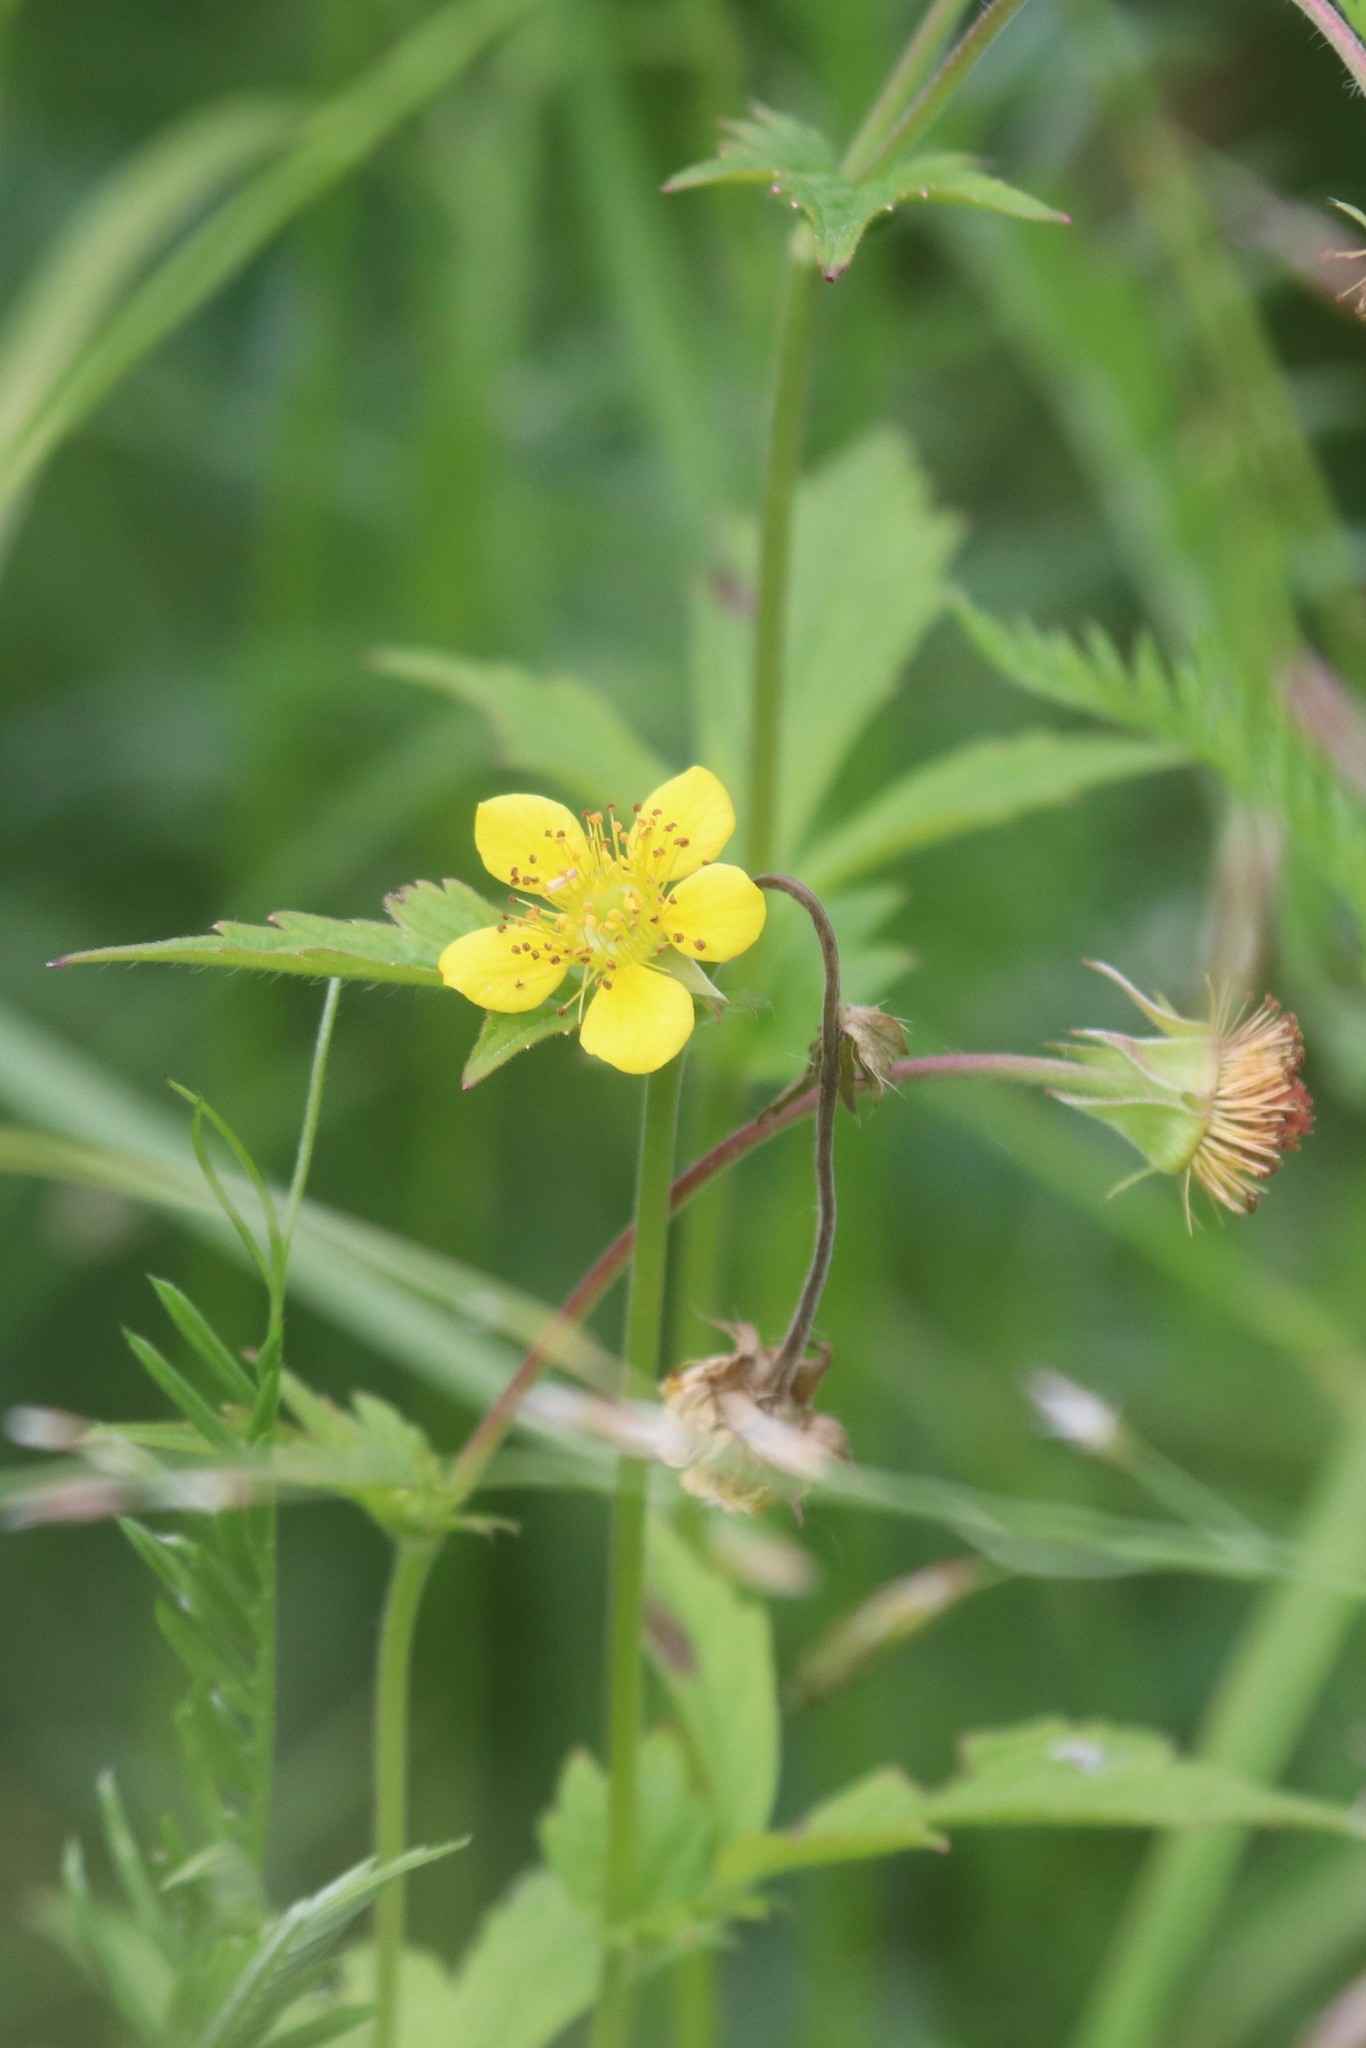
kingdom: Plantae
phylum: Tracheophyta
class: Magnoliopsida
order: Rosales
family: Rosaceae
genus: Geum
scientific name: Geum urbanum
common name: Wood avens
